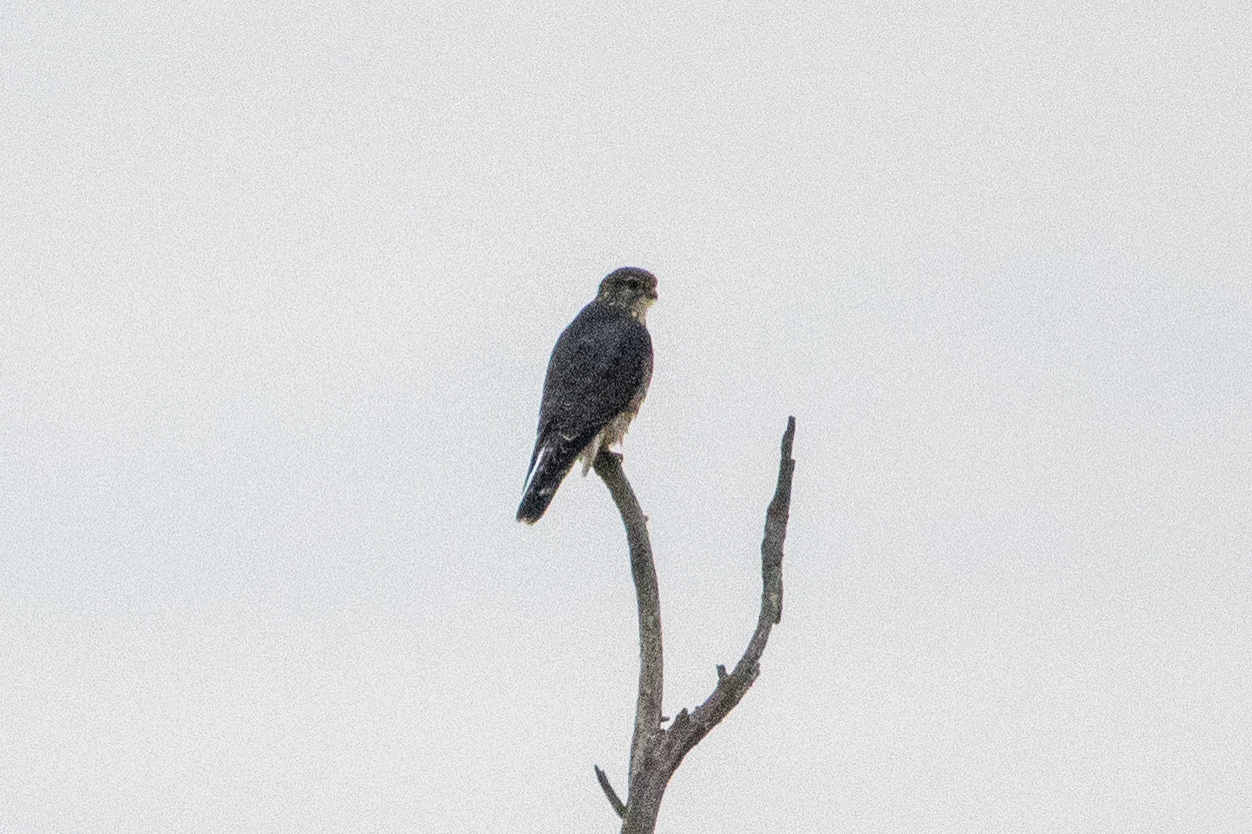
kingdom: Animalia
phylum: Chordata
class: Aves
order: Falconiformes
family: Falconidae
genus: Falco
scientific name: Falco columbarius
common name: Merlin
